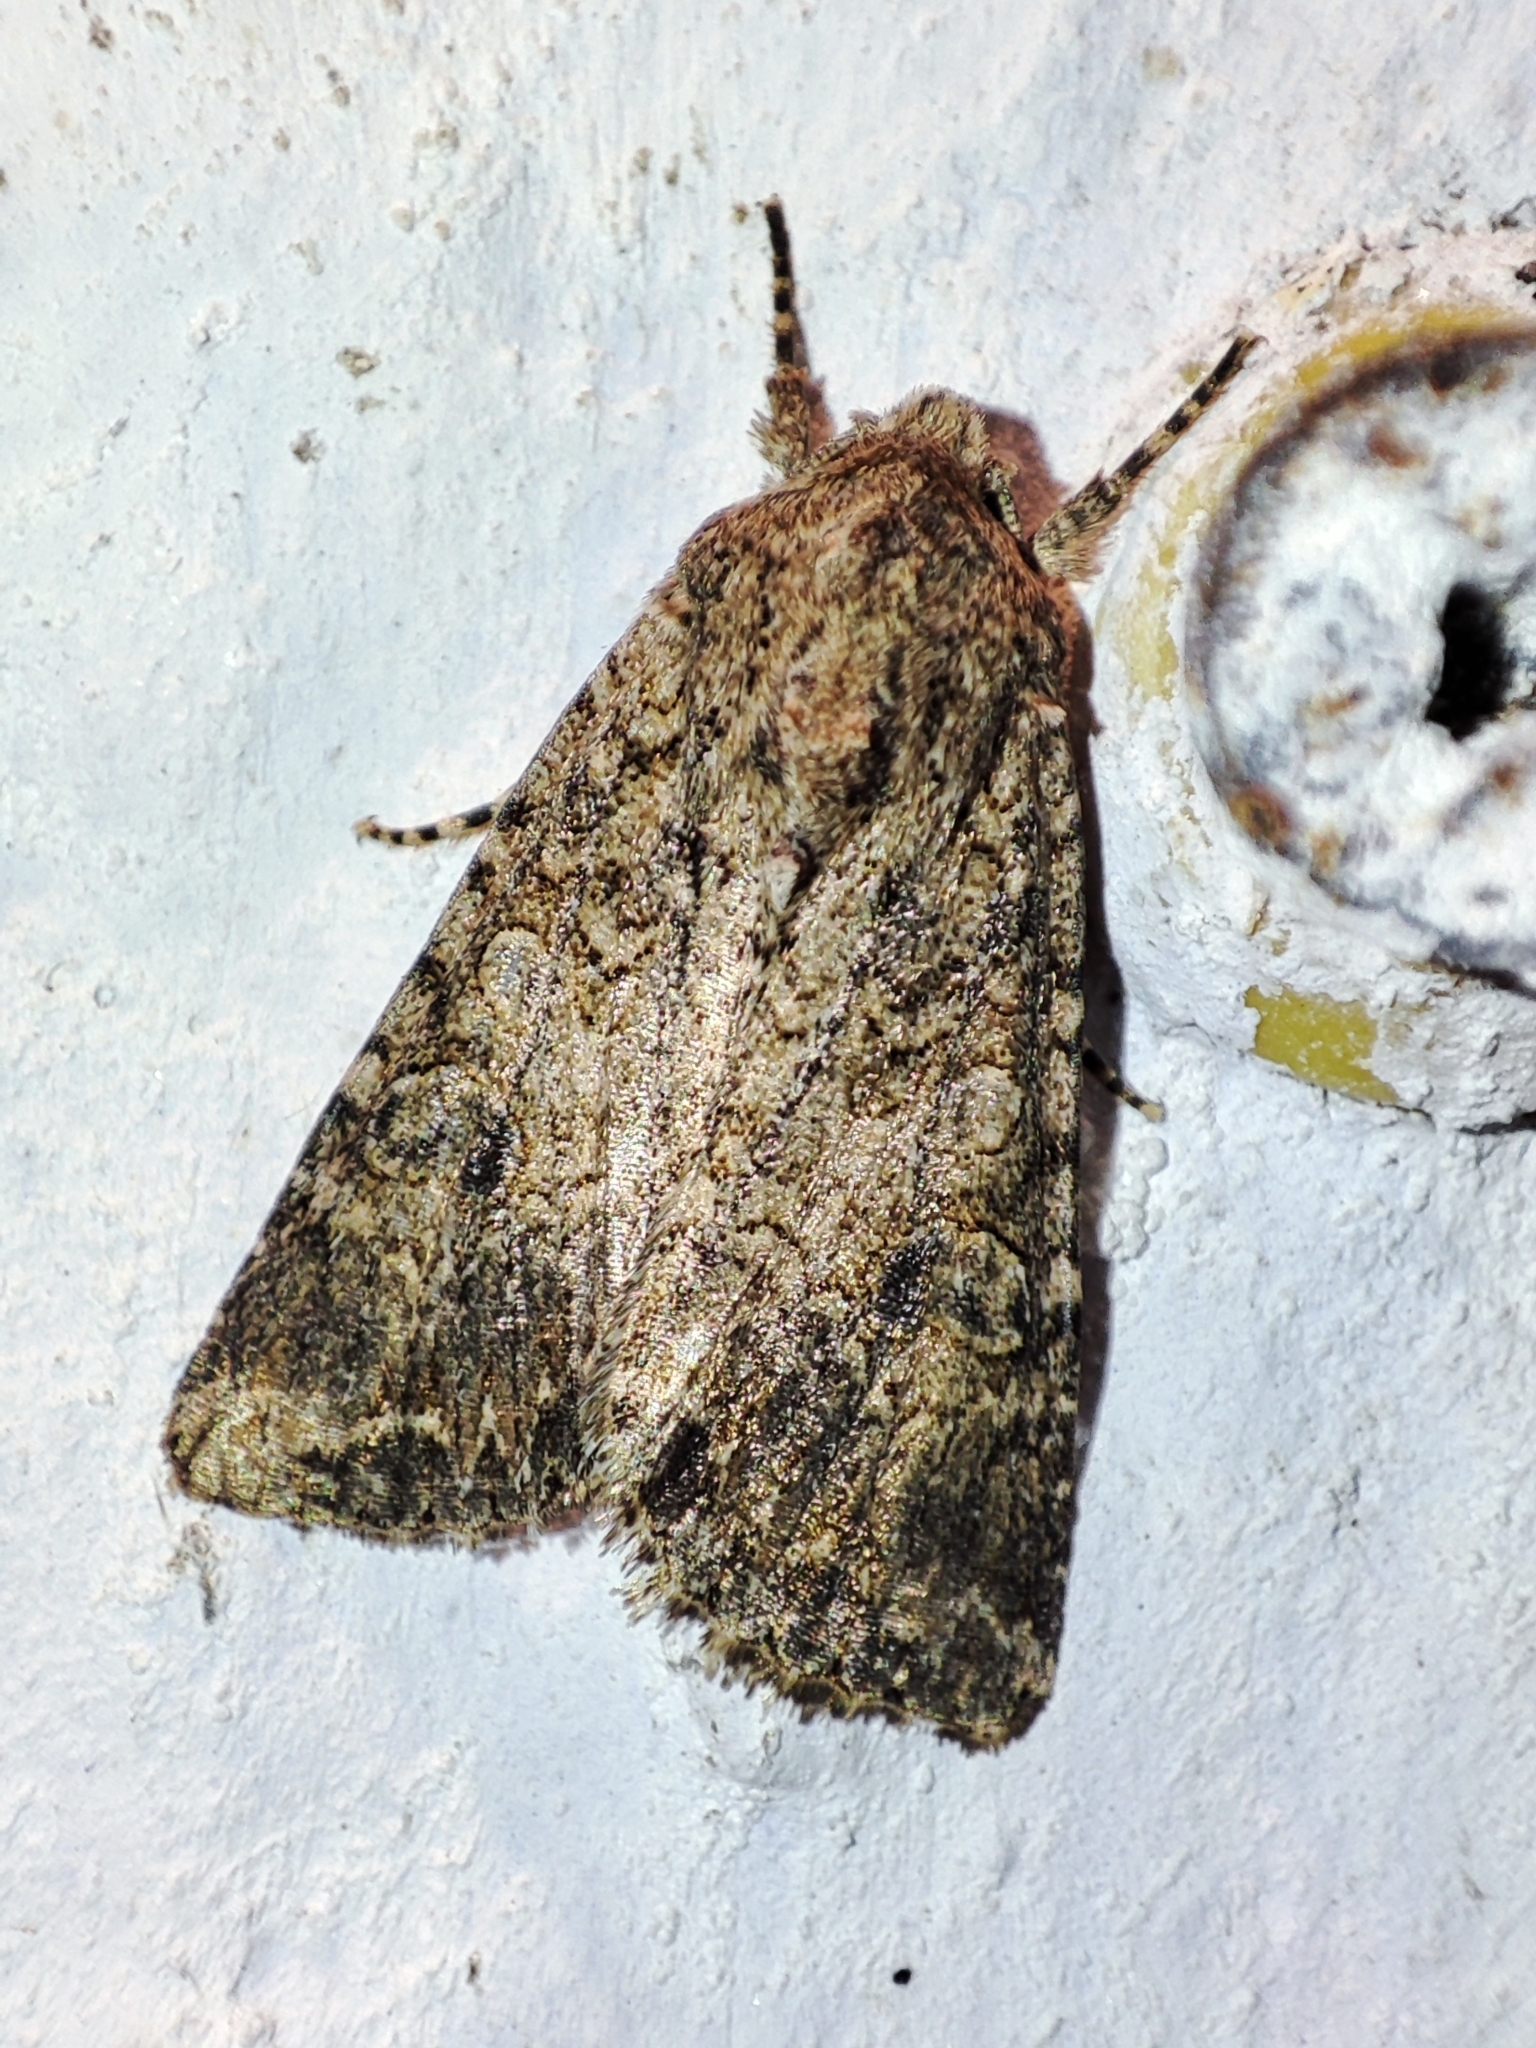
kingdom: Animalia
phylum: Arthropoda
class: Insecta
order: Lepidoptera
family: Noctuidae
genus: Anarta
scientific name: Anarta trifolii
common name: Clover cutworm moth
